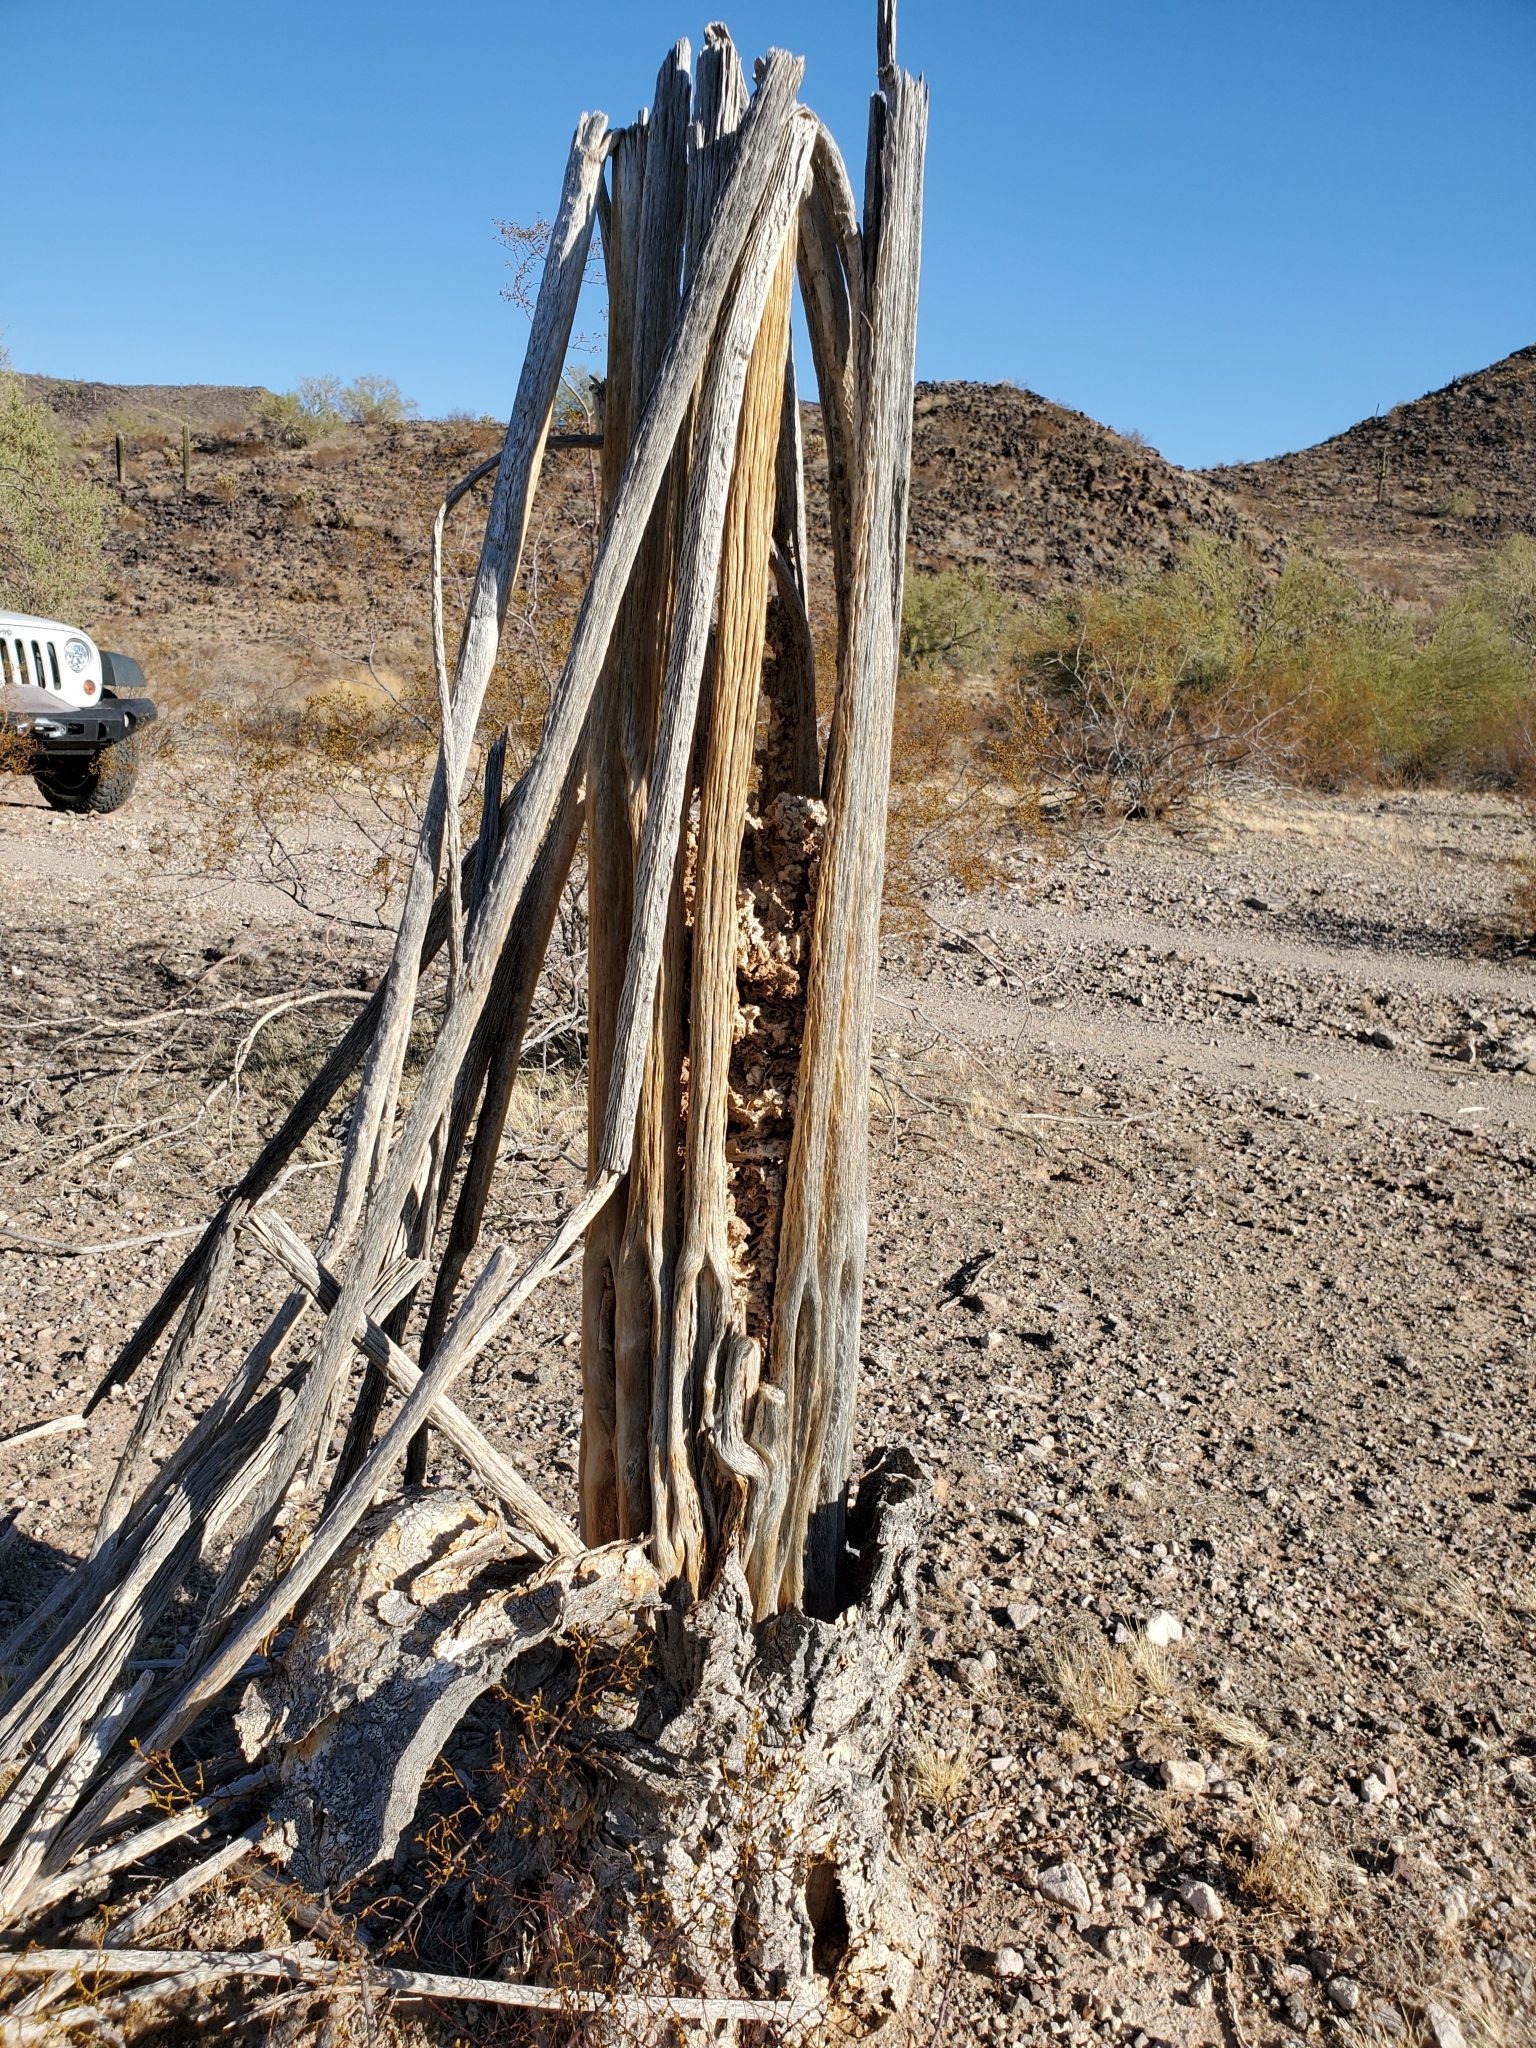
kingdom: Plantae
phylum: Tracheophyta
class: Magnoliopsida
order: Caryophyllales
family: Cactaceae
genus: Carnegiea
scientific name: Carnegiea gigantea
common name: Saguaro
